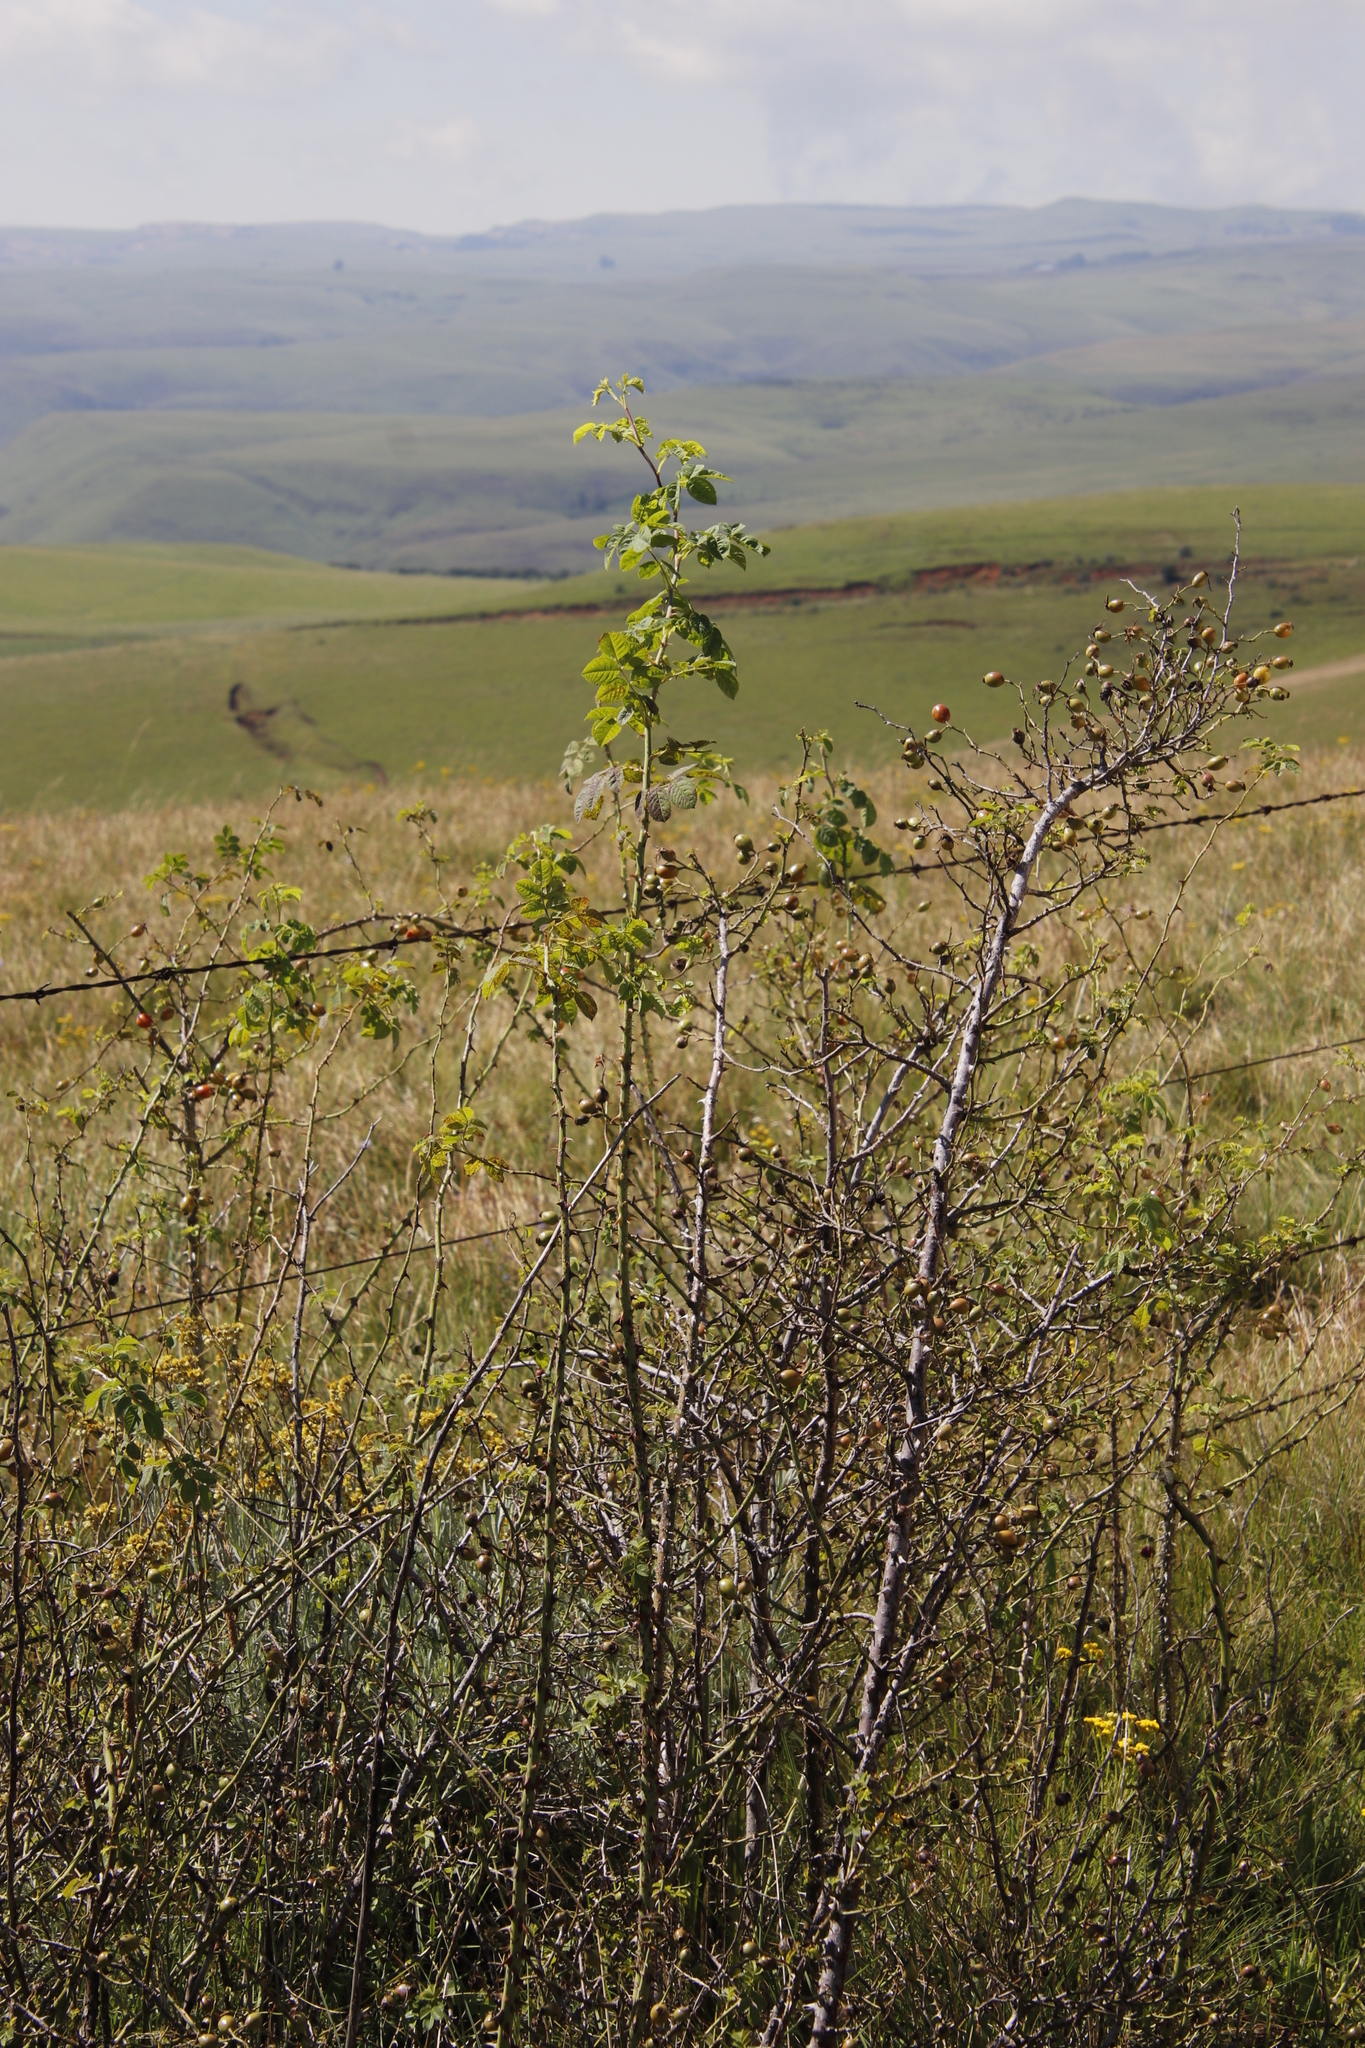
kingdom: Plantae
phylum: Tracheophyta
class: Magnoliopsida
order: Rosales
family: Rosaceae
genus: Rosa
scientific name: Rosa rubiginosa
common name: Sweet-briar
